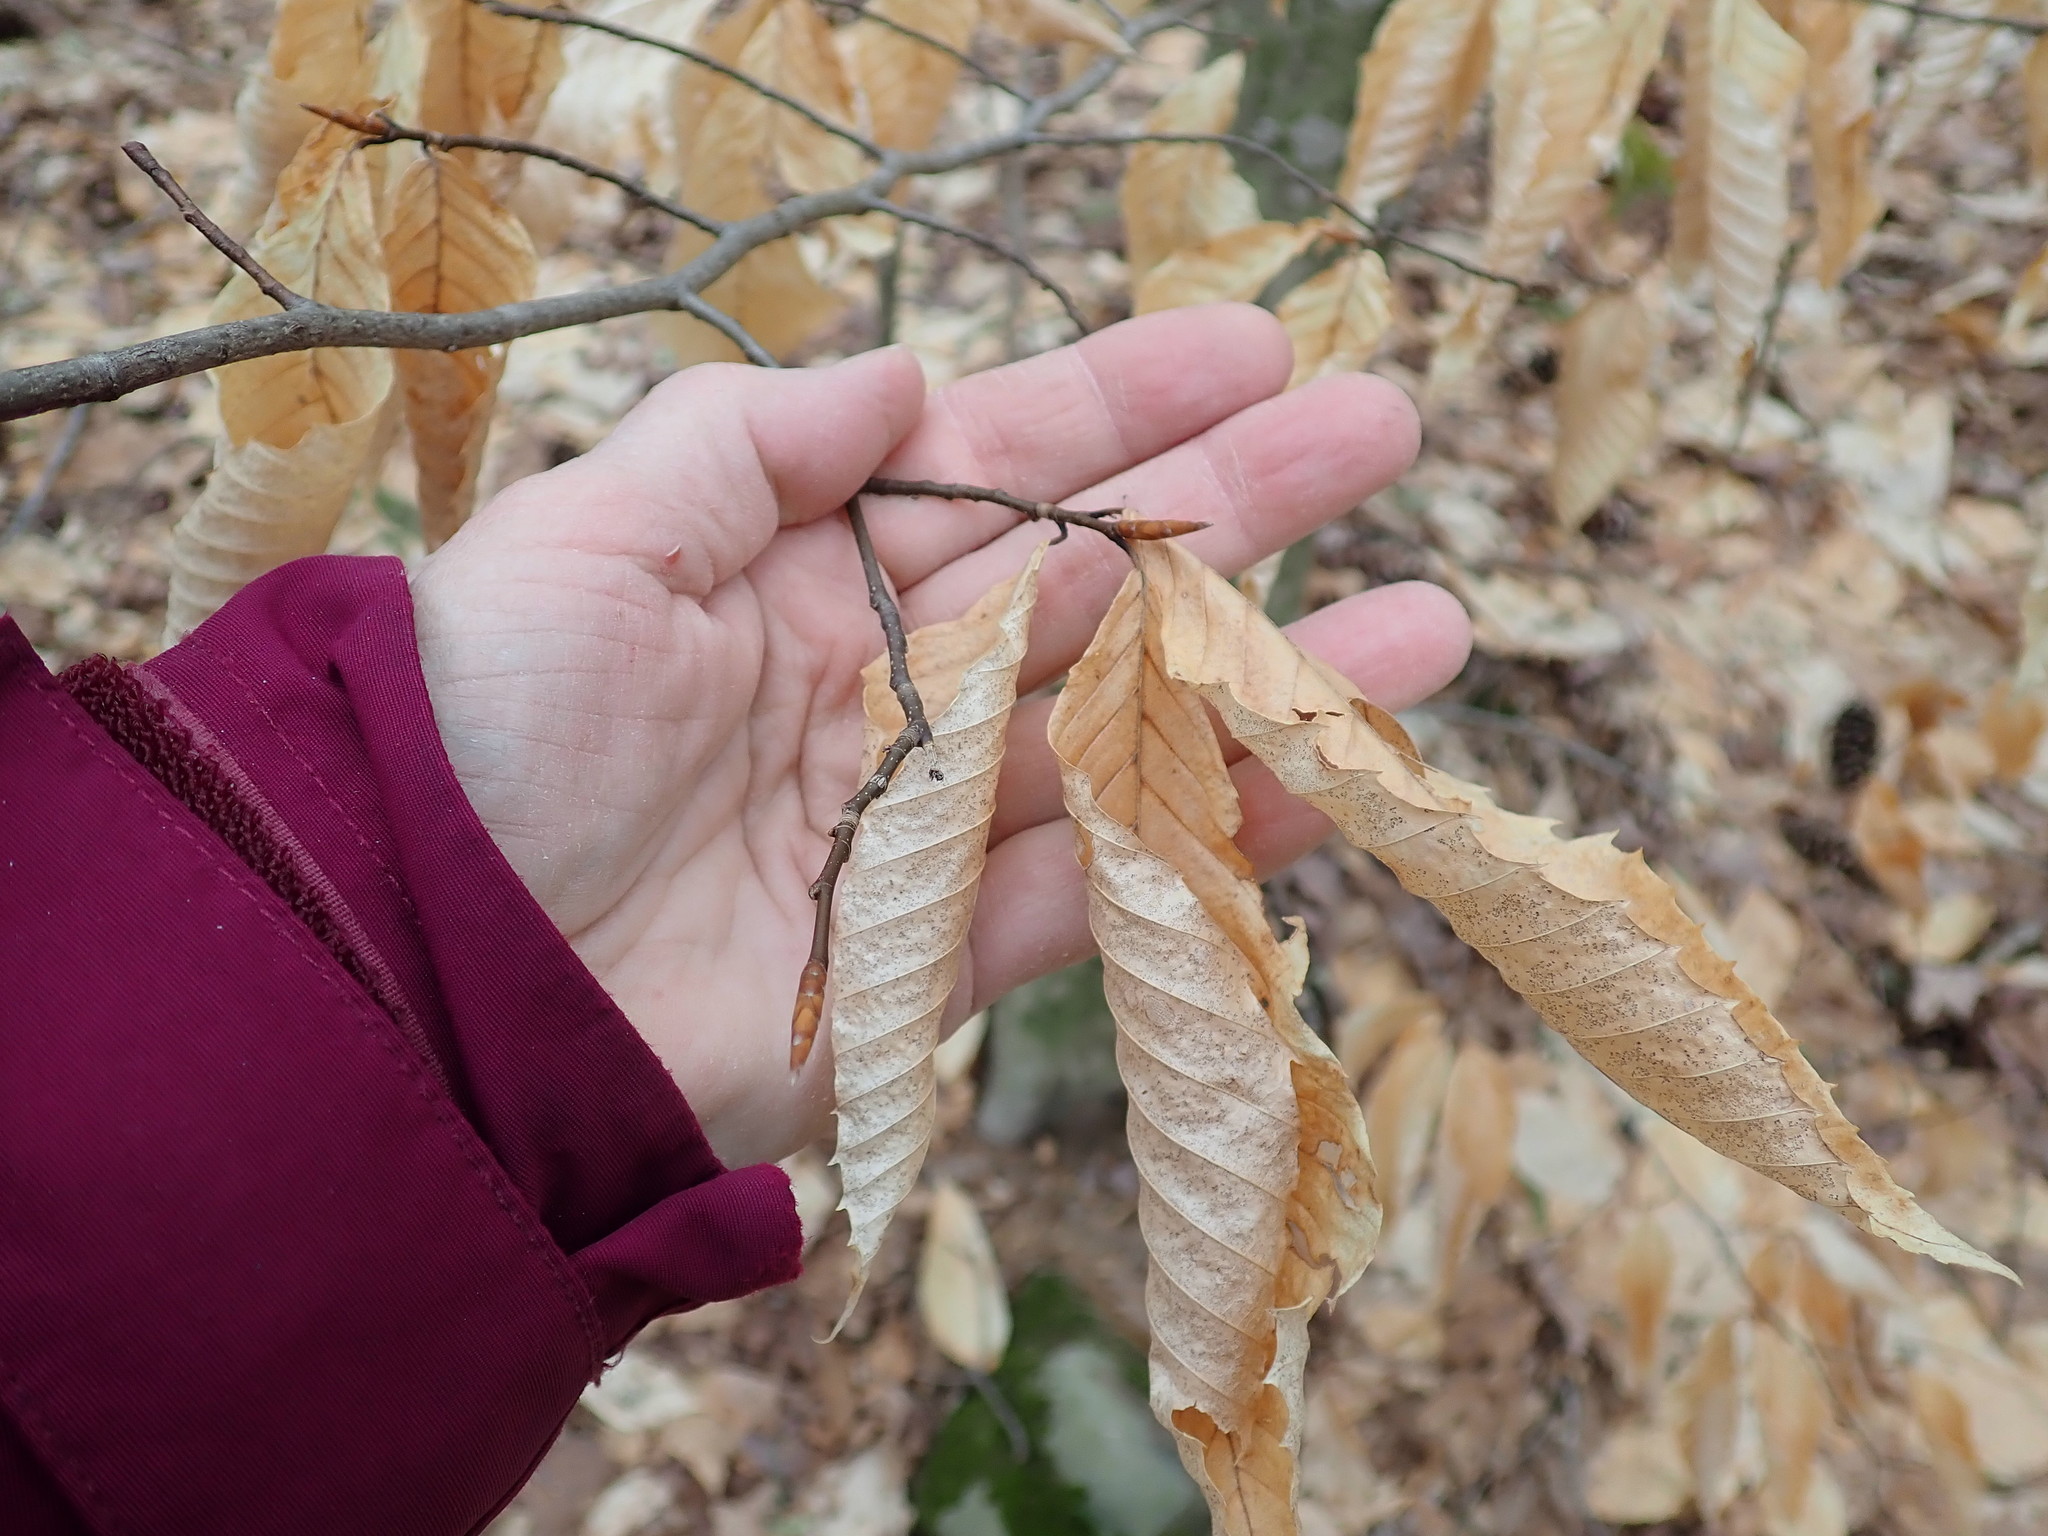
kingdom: Plantae
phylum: Tracheophyta
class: Magnoliopsida
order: Fagales
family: Fagaceae
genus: Fagus
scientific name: Fagus grandifolia
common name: American beech
